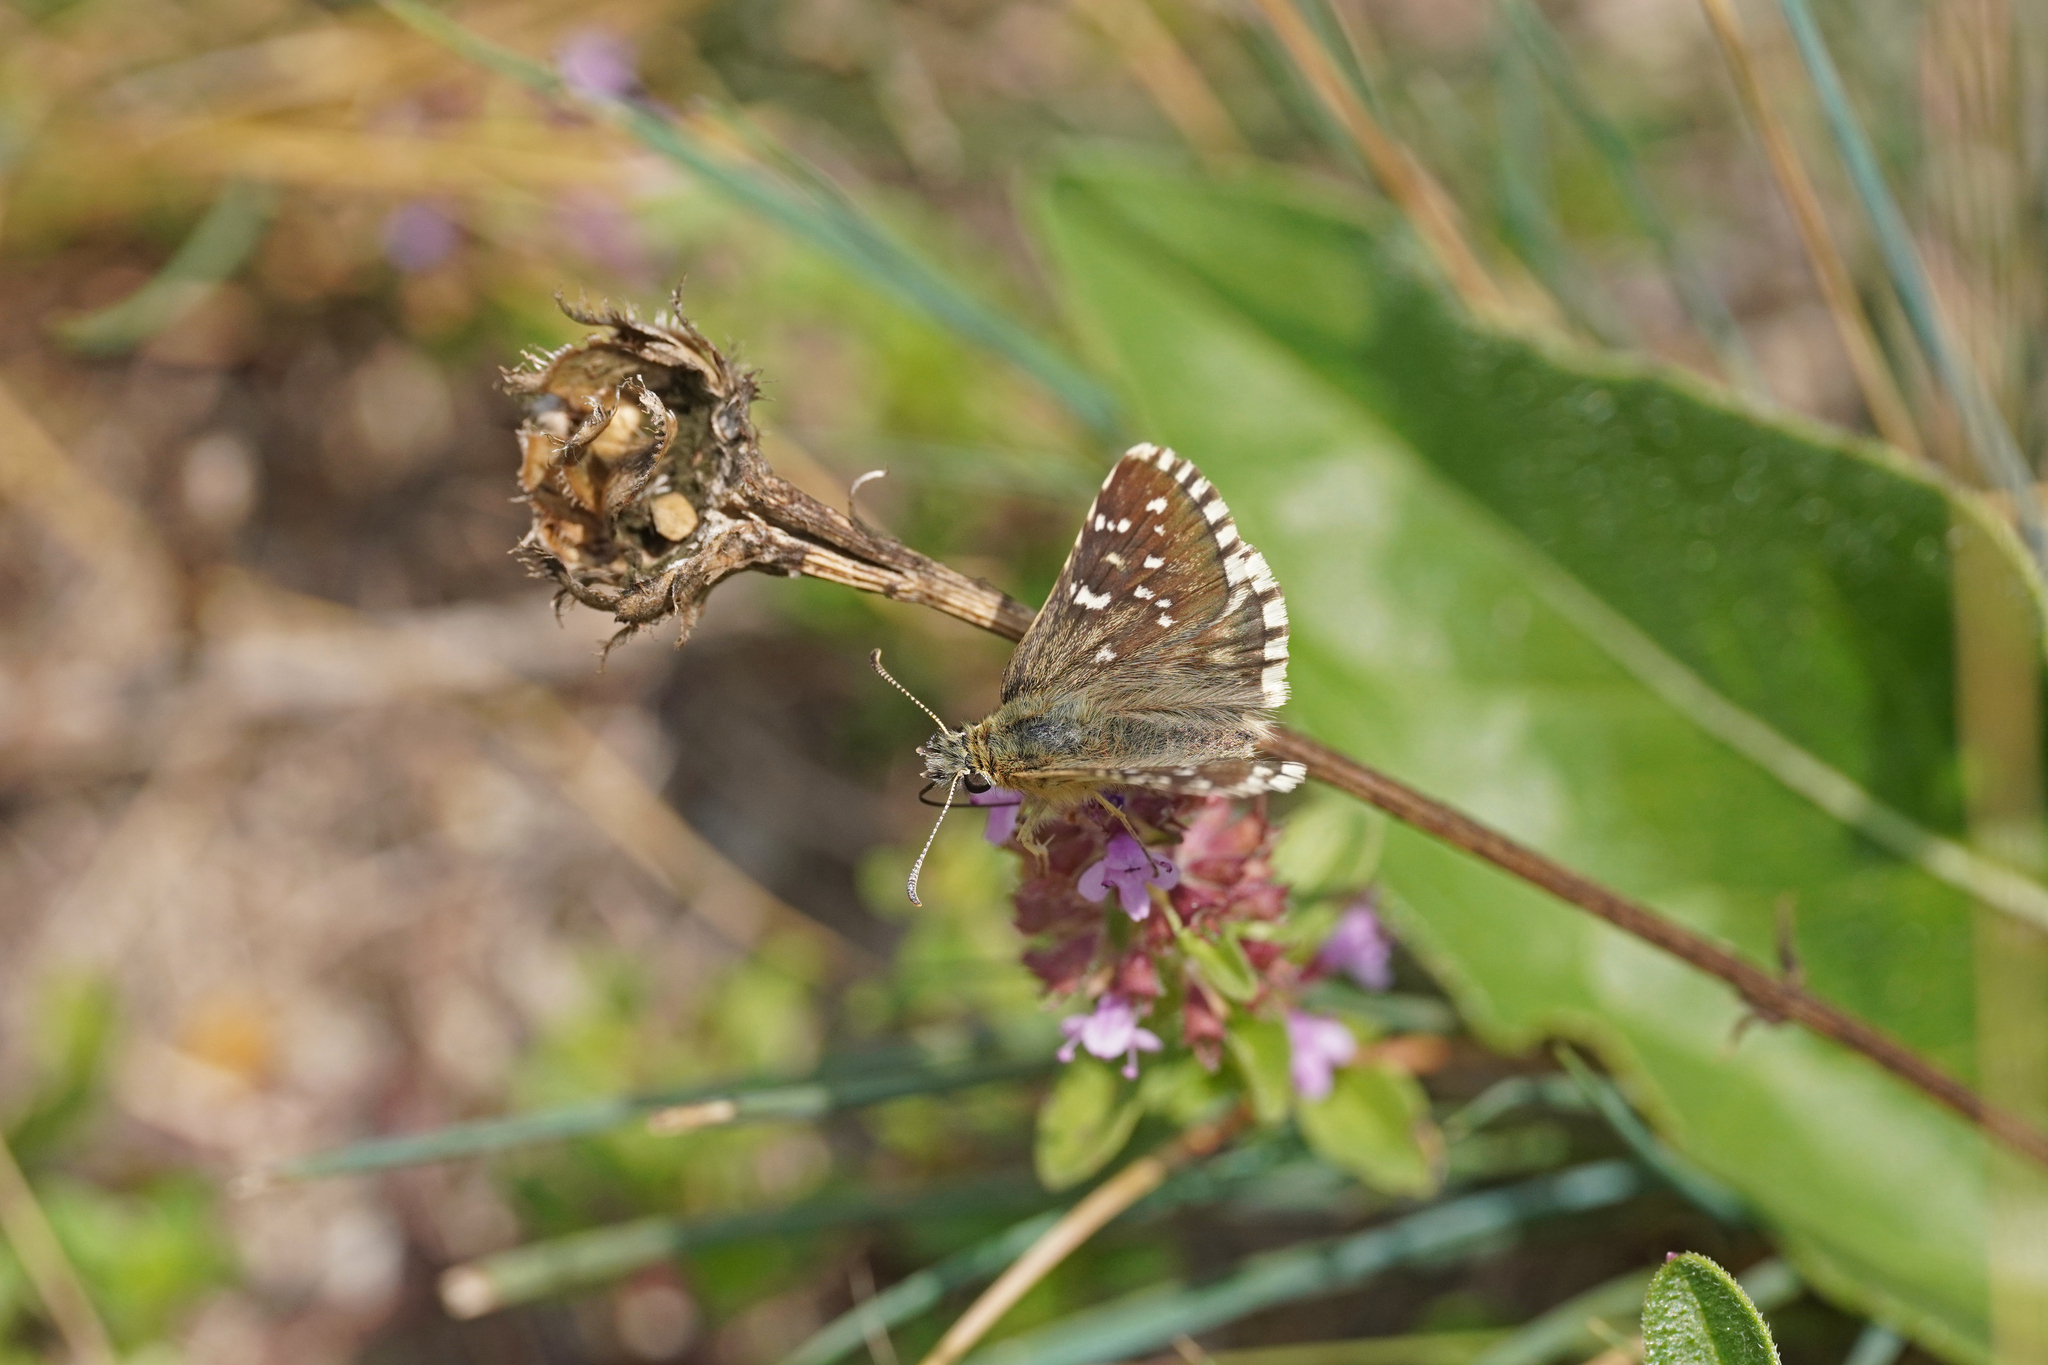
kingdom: Animalia
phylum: Arthropoda
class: Insecta
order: Lepidoptera
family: Hesperiidae
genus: Pyrgus
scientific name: Pyrgus armoricanus
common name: Oberthür's grizzled skipper
